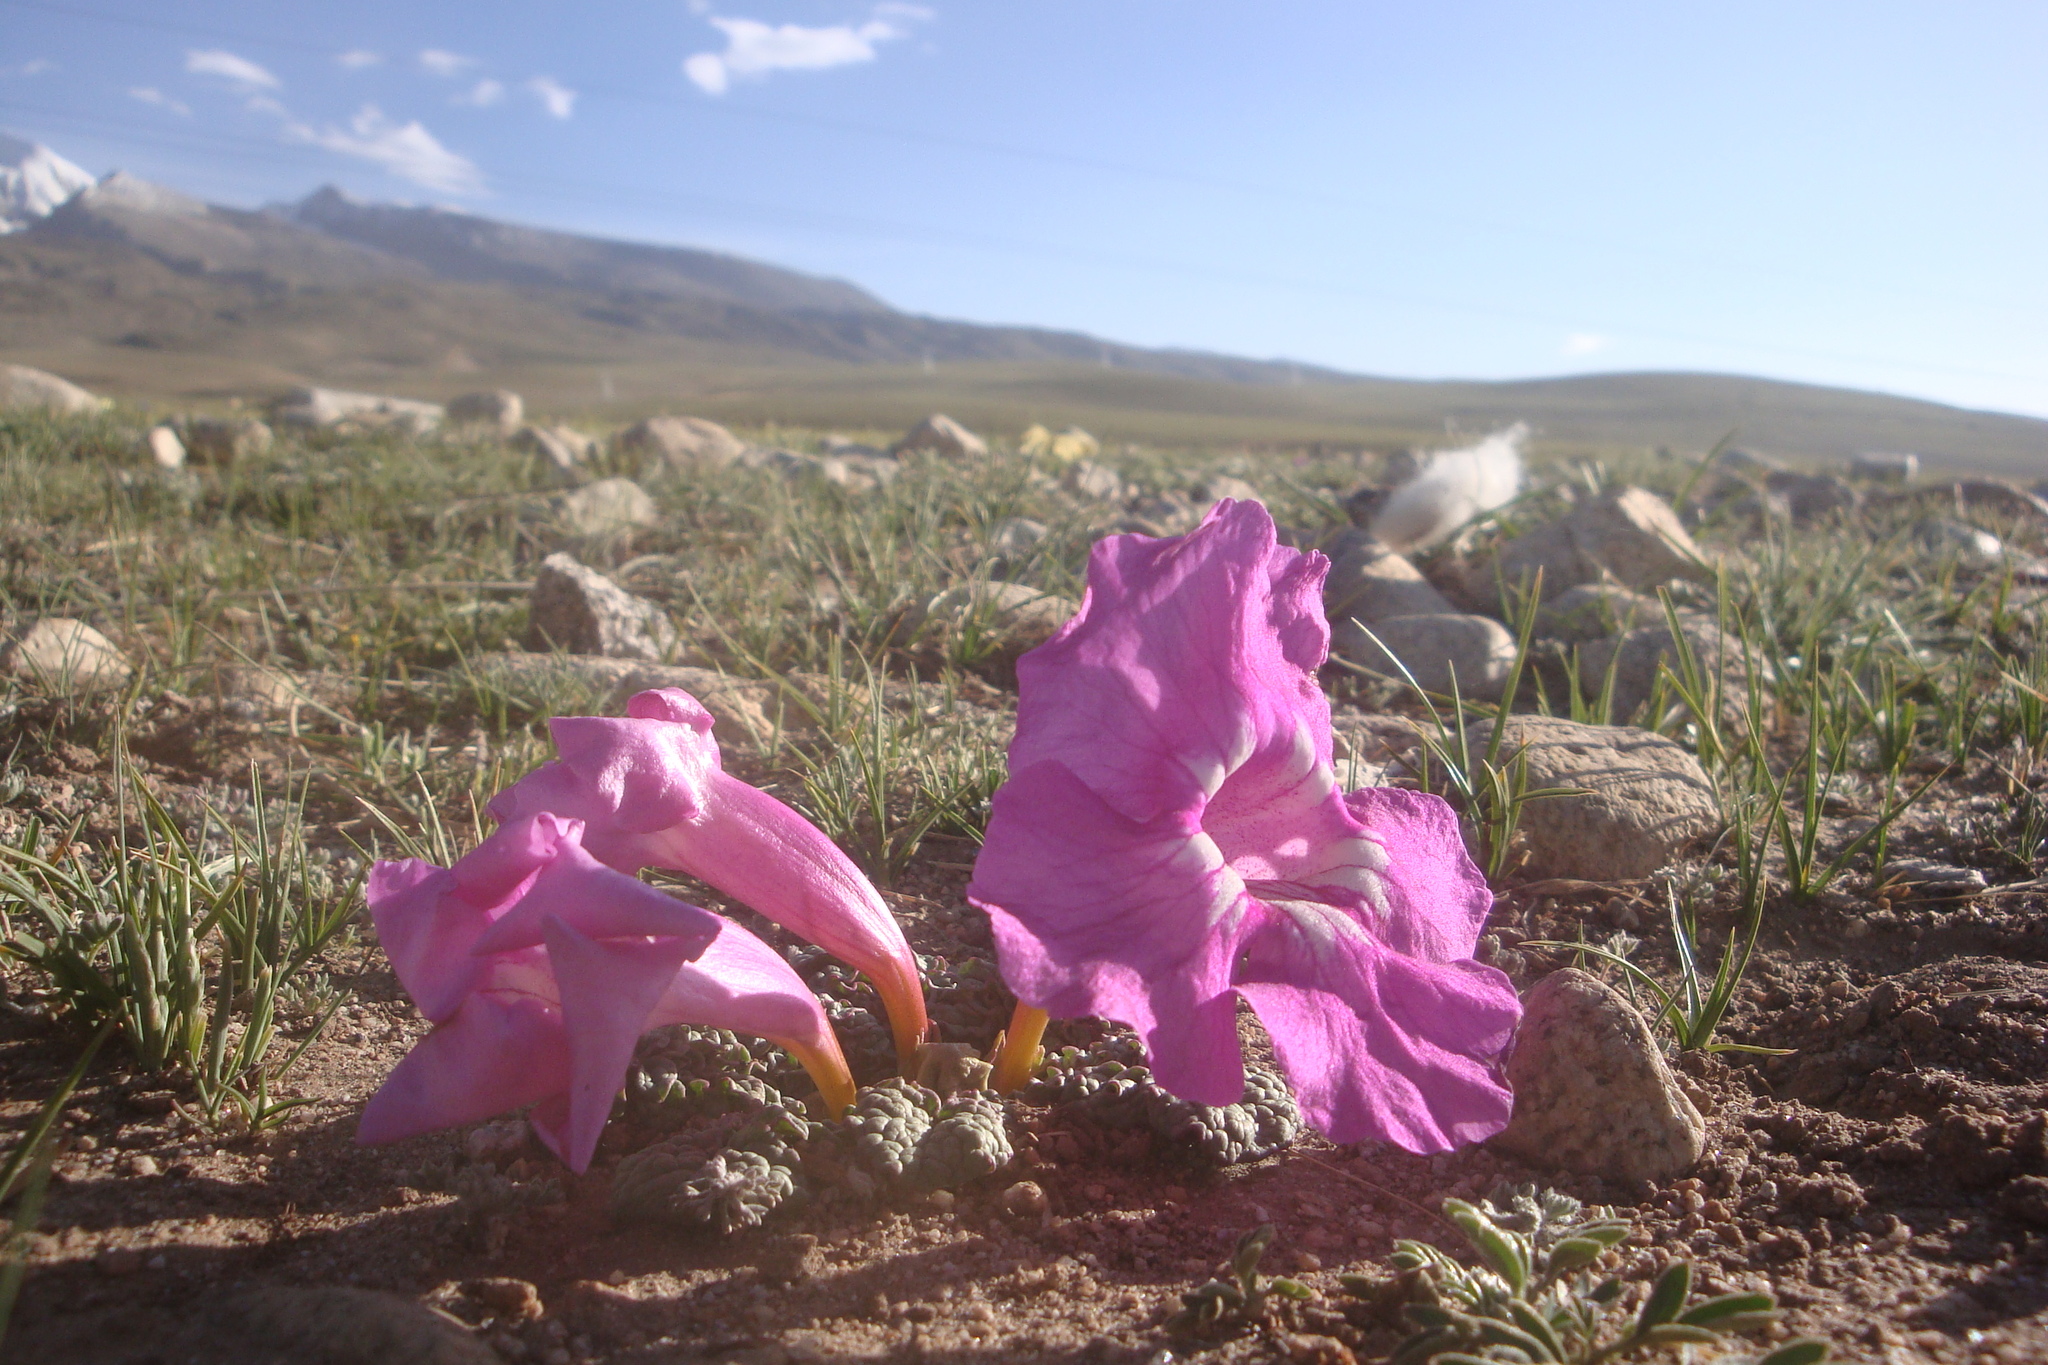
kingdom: Plantae
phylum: Tracheophyta
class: Magnoliopsida
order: Lamiales
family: Bignoniaceae
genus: Incarvillea
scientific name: Incarvillea younghusbandii
